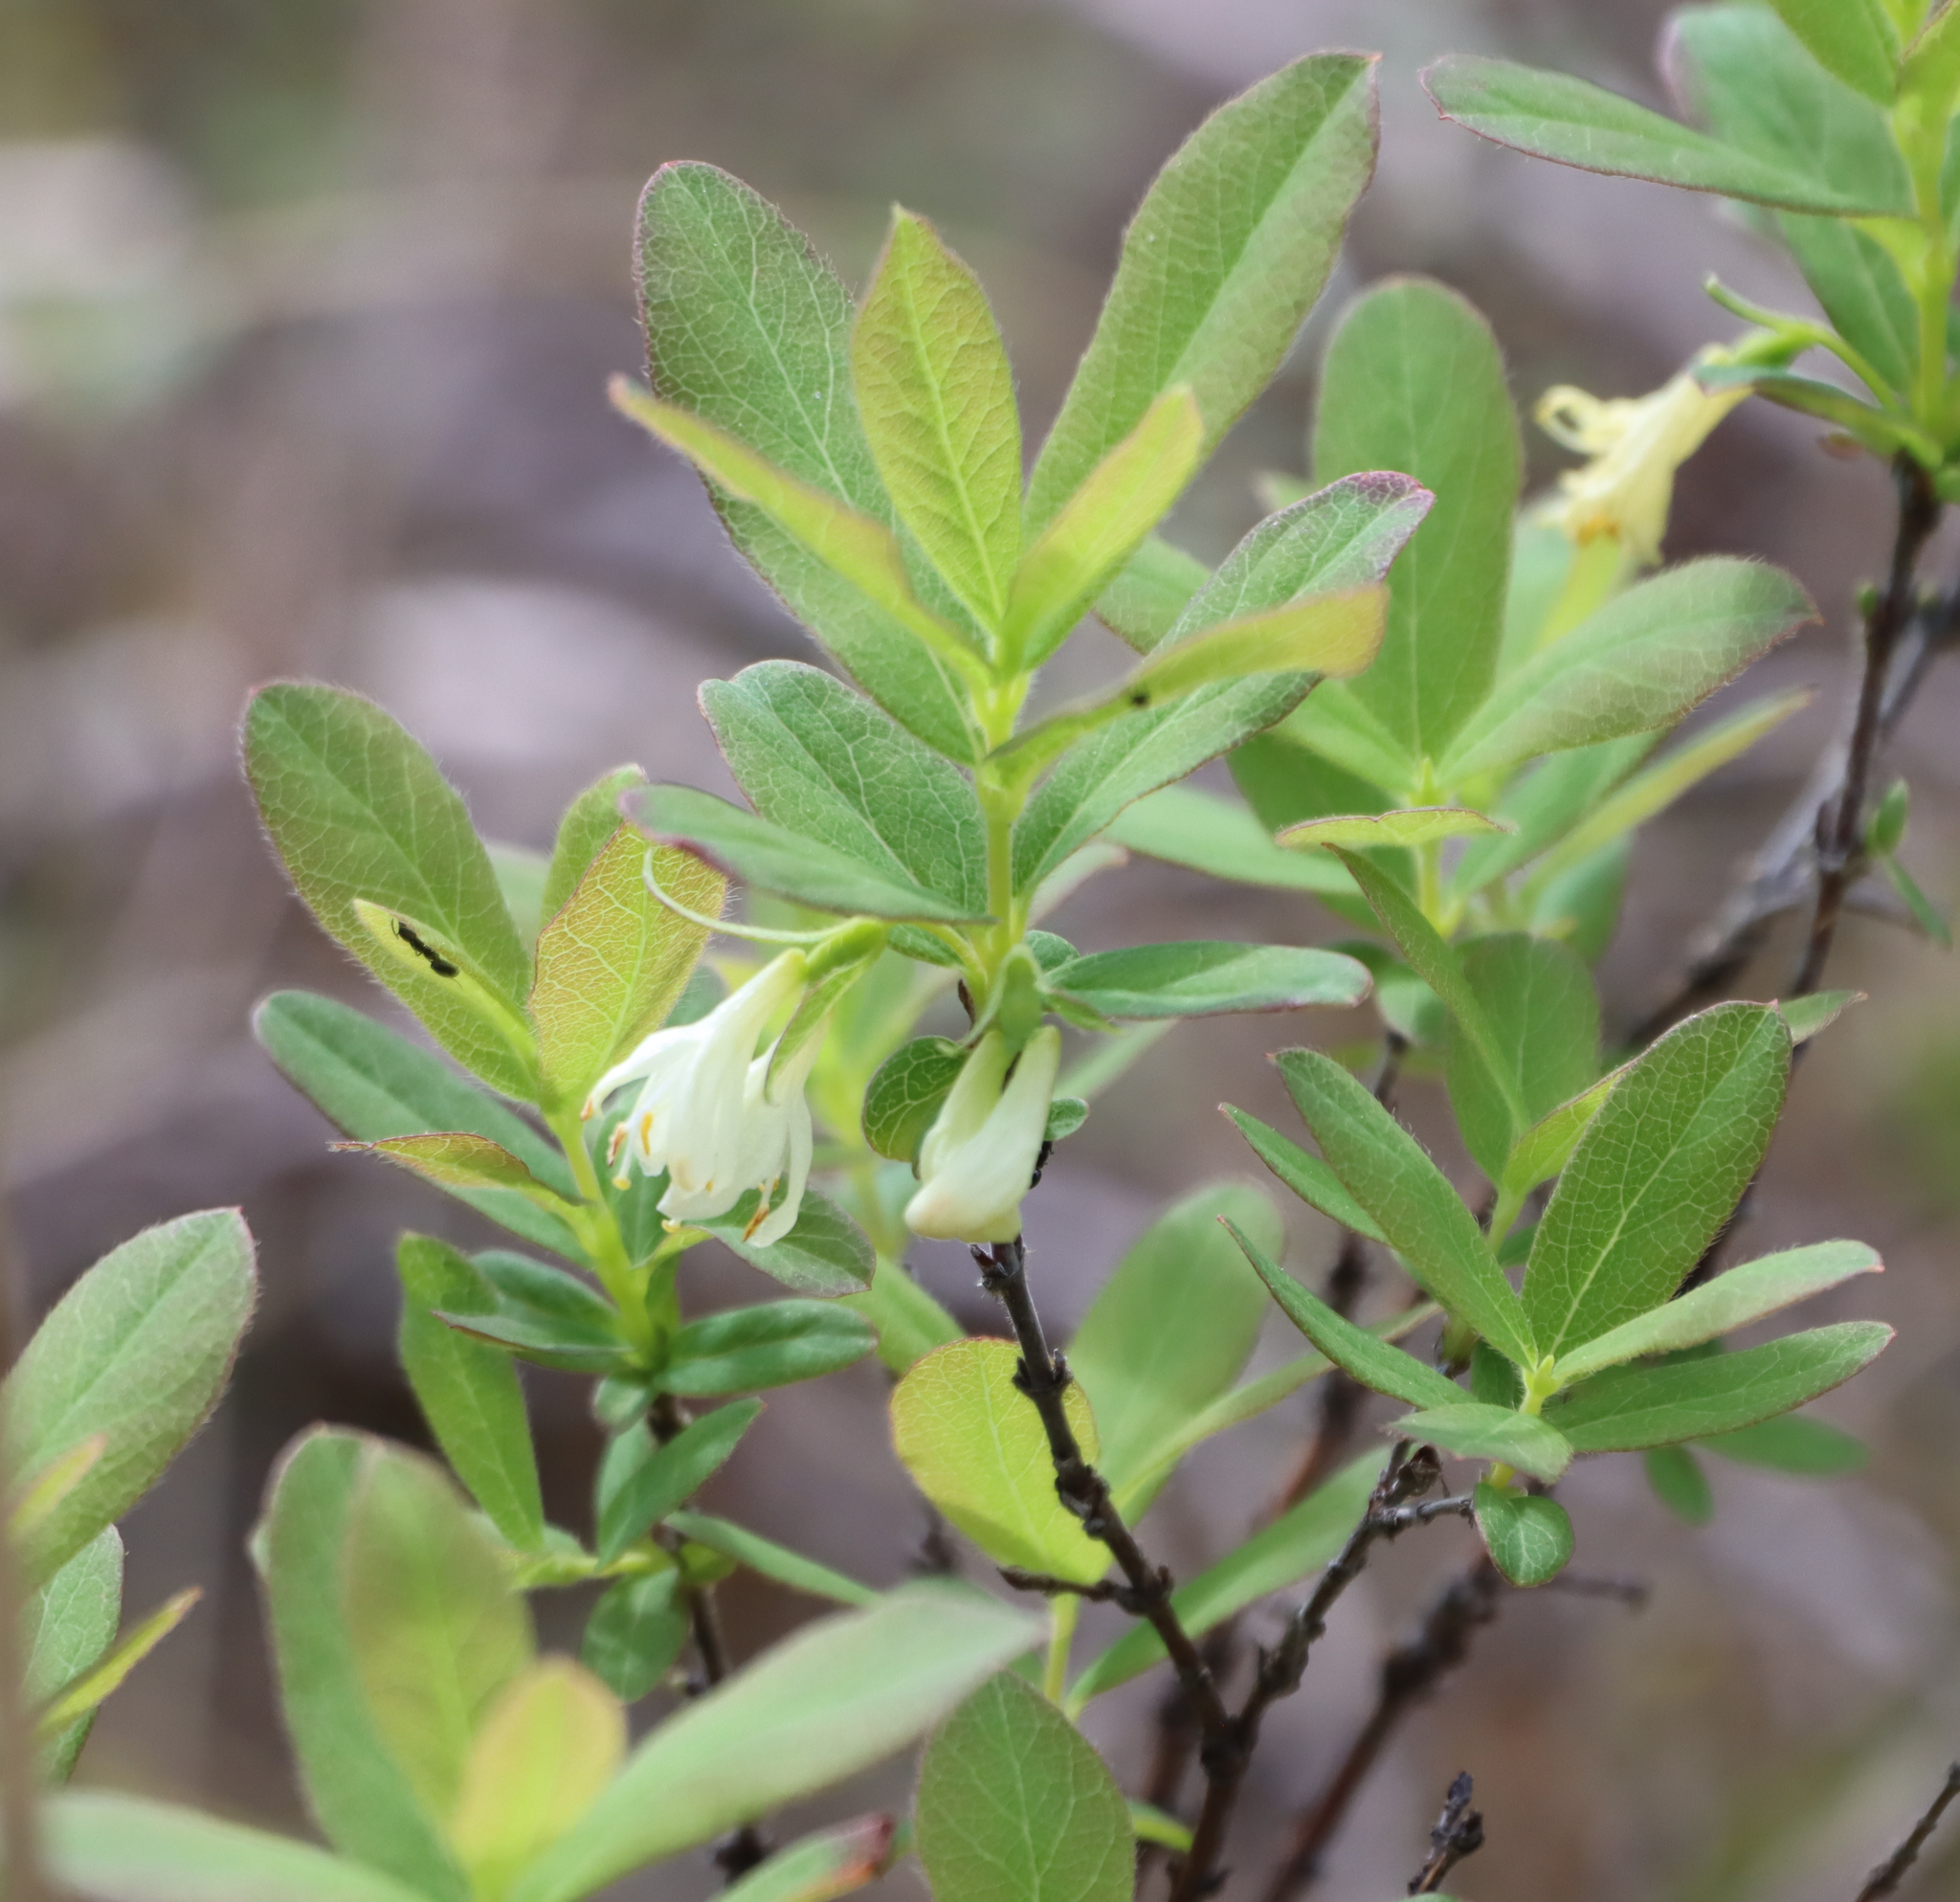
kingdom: Plantae
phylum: Tracheophyta
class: Magnoliopsida
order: Dipsacales
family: Caprifoliaceae
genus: Lonicera
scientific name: Lonicera villosa
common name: Mountain fly-honeysuckle
